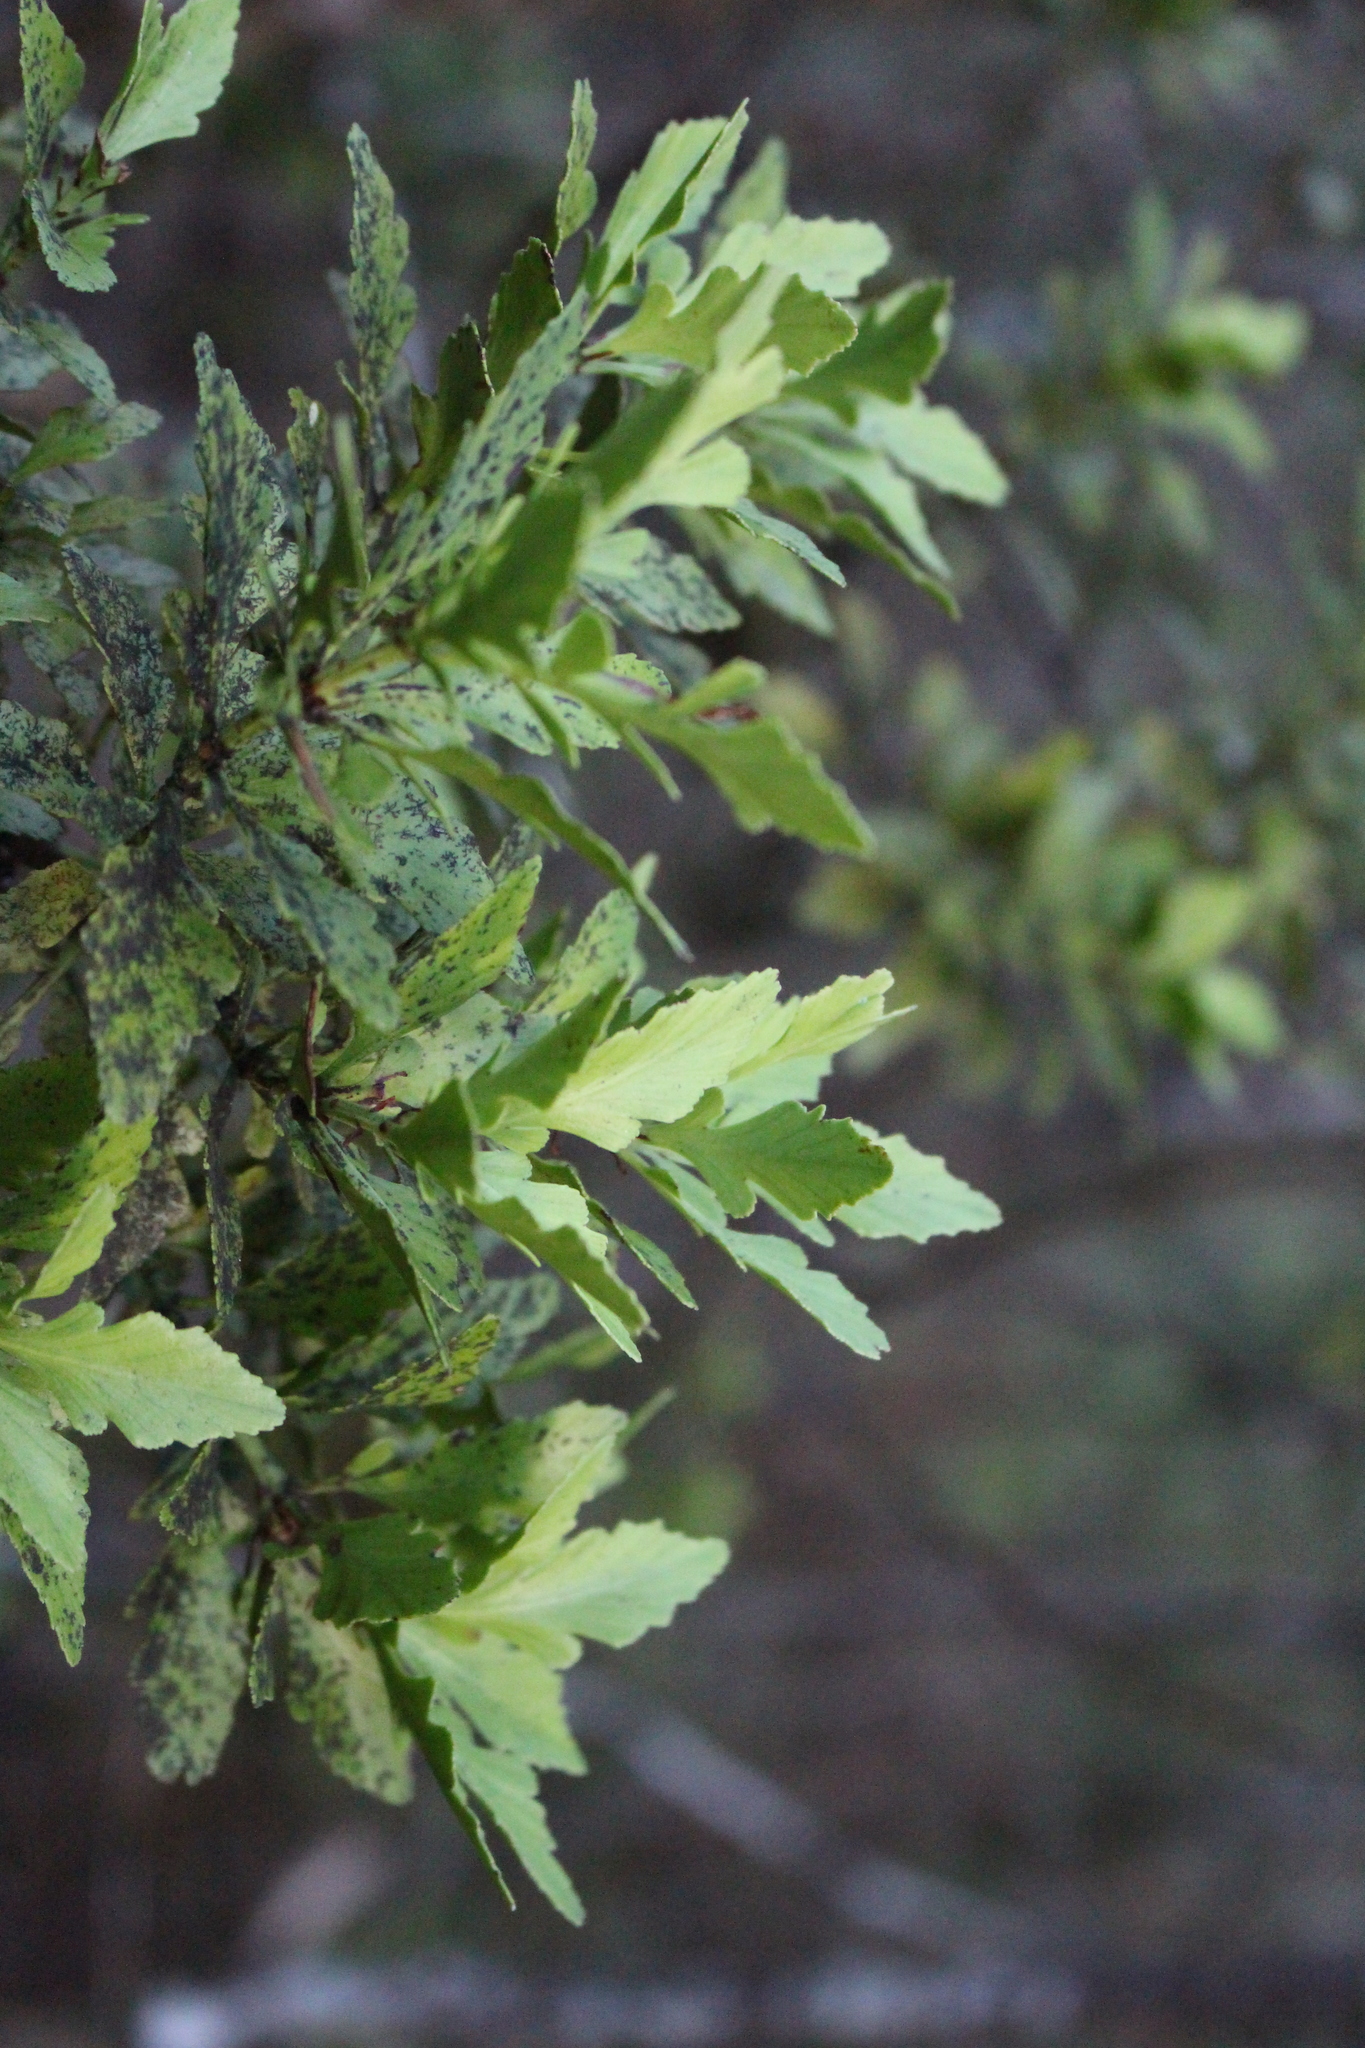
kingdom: Plantae
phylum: Tracheophyta
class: Pinopsida
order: Pinales
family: Phyllocladaceae
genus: Phyllocladus
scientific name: Phyllocladus trichomanoides
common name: Celery pine
